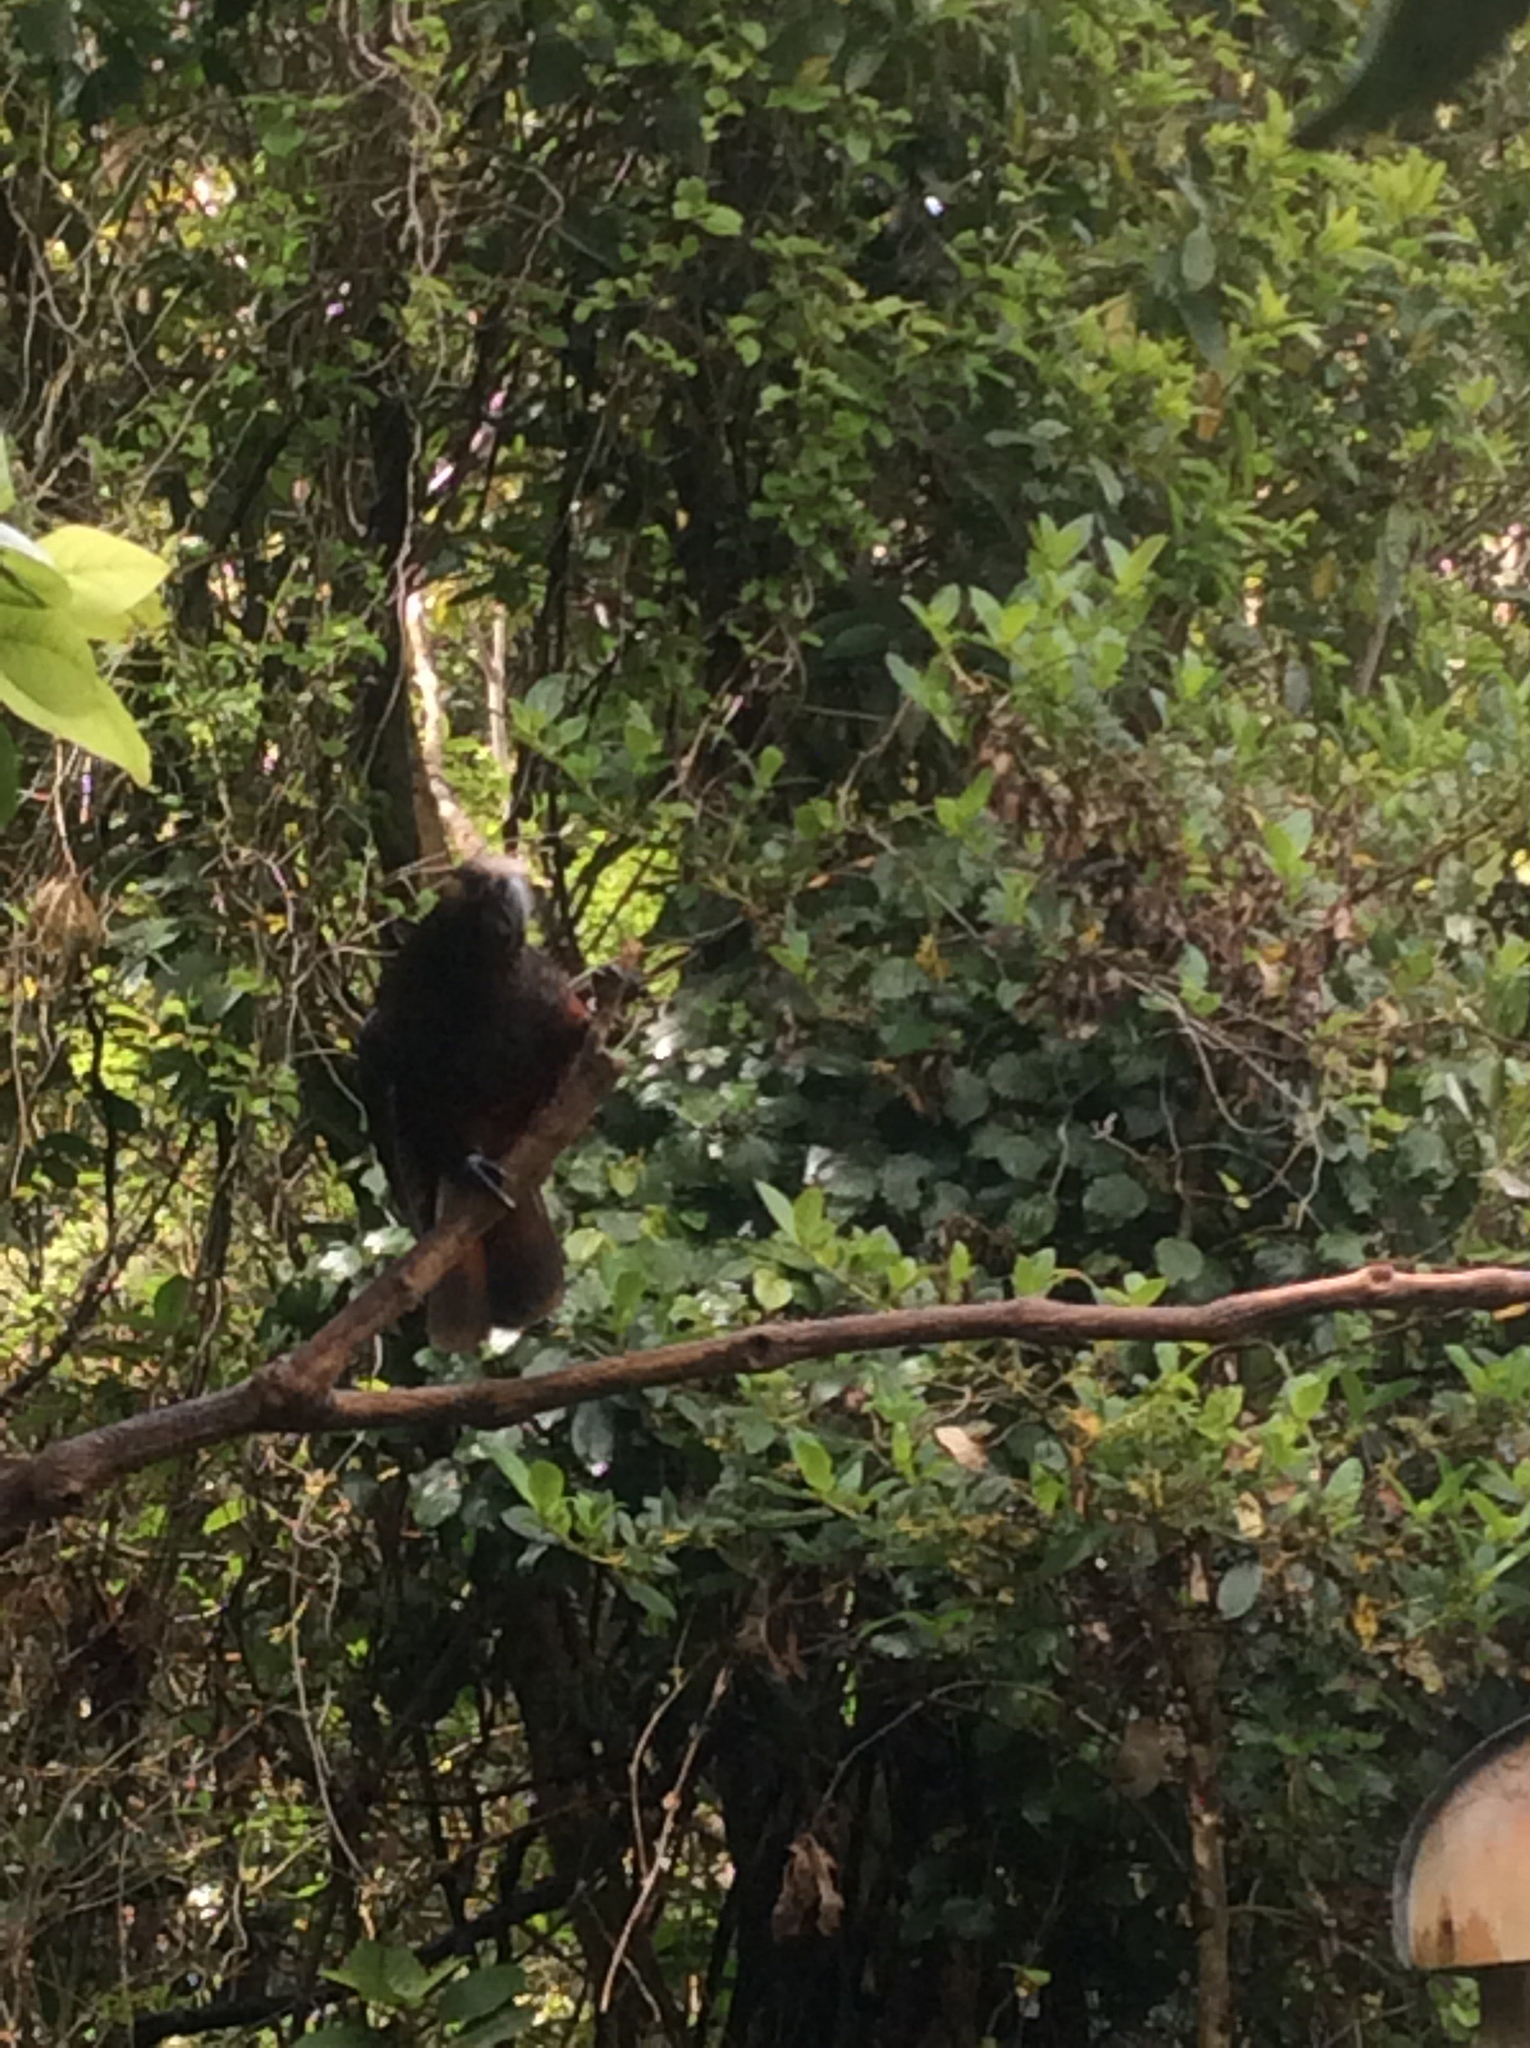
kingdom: Animalia
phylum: Chordata
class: Aves
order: Psittaciformes
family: Psittacidae
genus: Nestor
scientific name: Nestor meridionalis
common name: New zealand kaka
